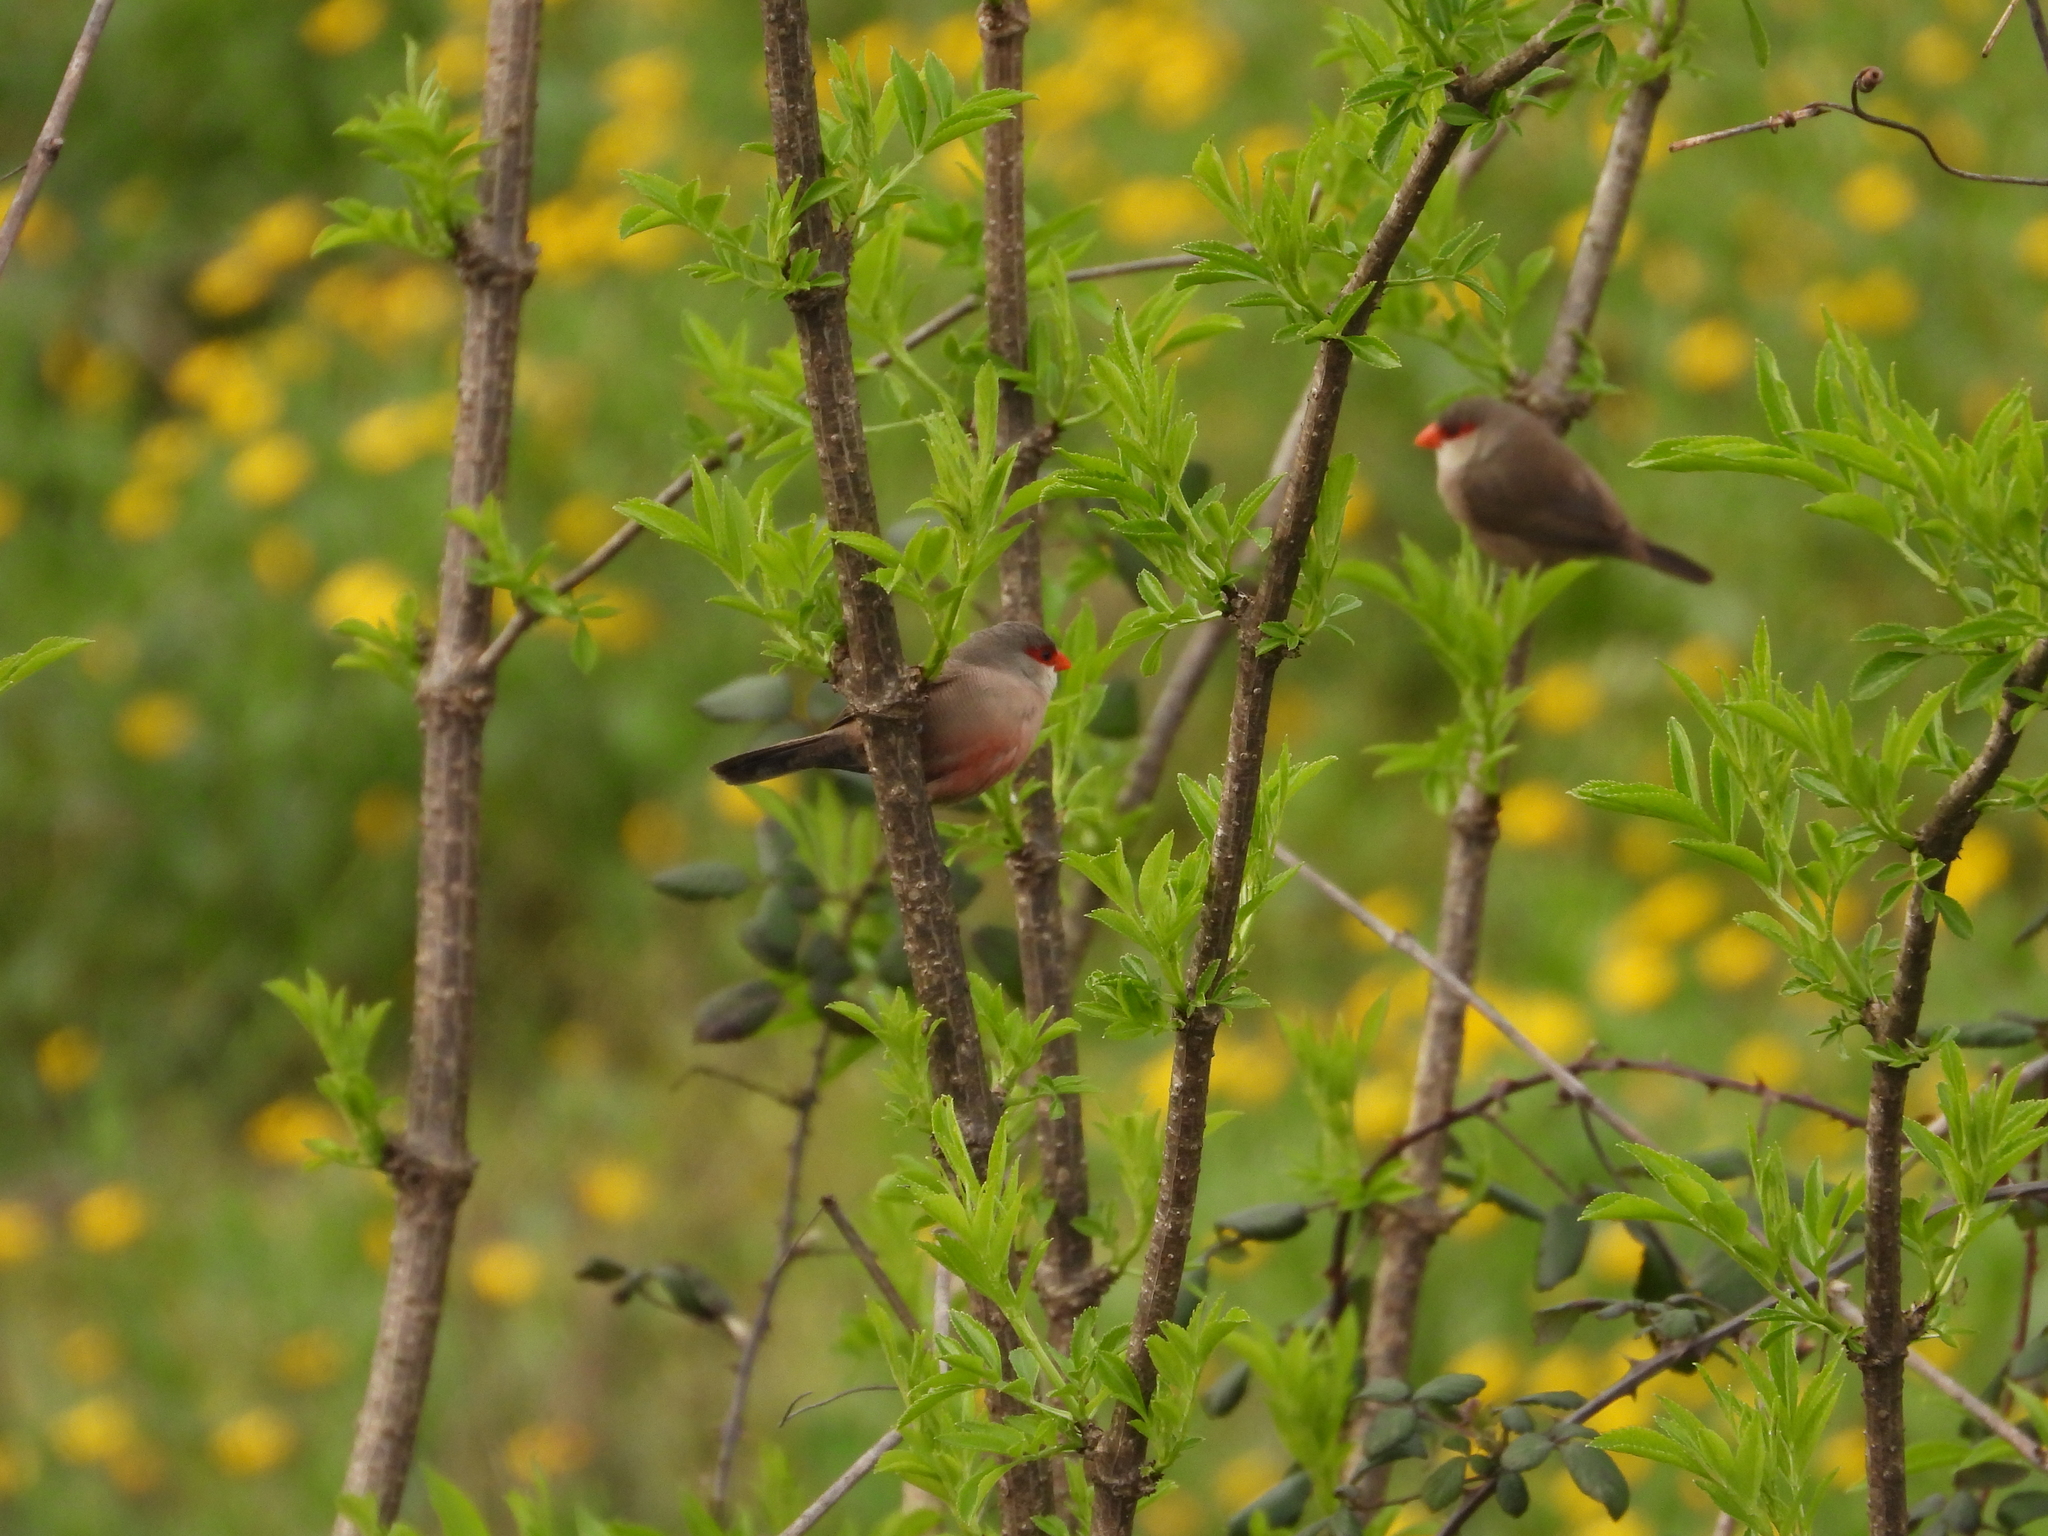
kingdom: Animalia
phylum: Chordata
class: Aves
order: Passeriformes
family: Estrildidae
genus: Estrilda
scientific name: Estrilda astrild
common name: Common waxbill
